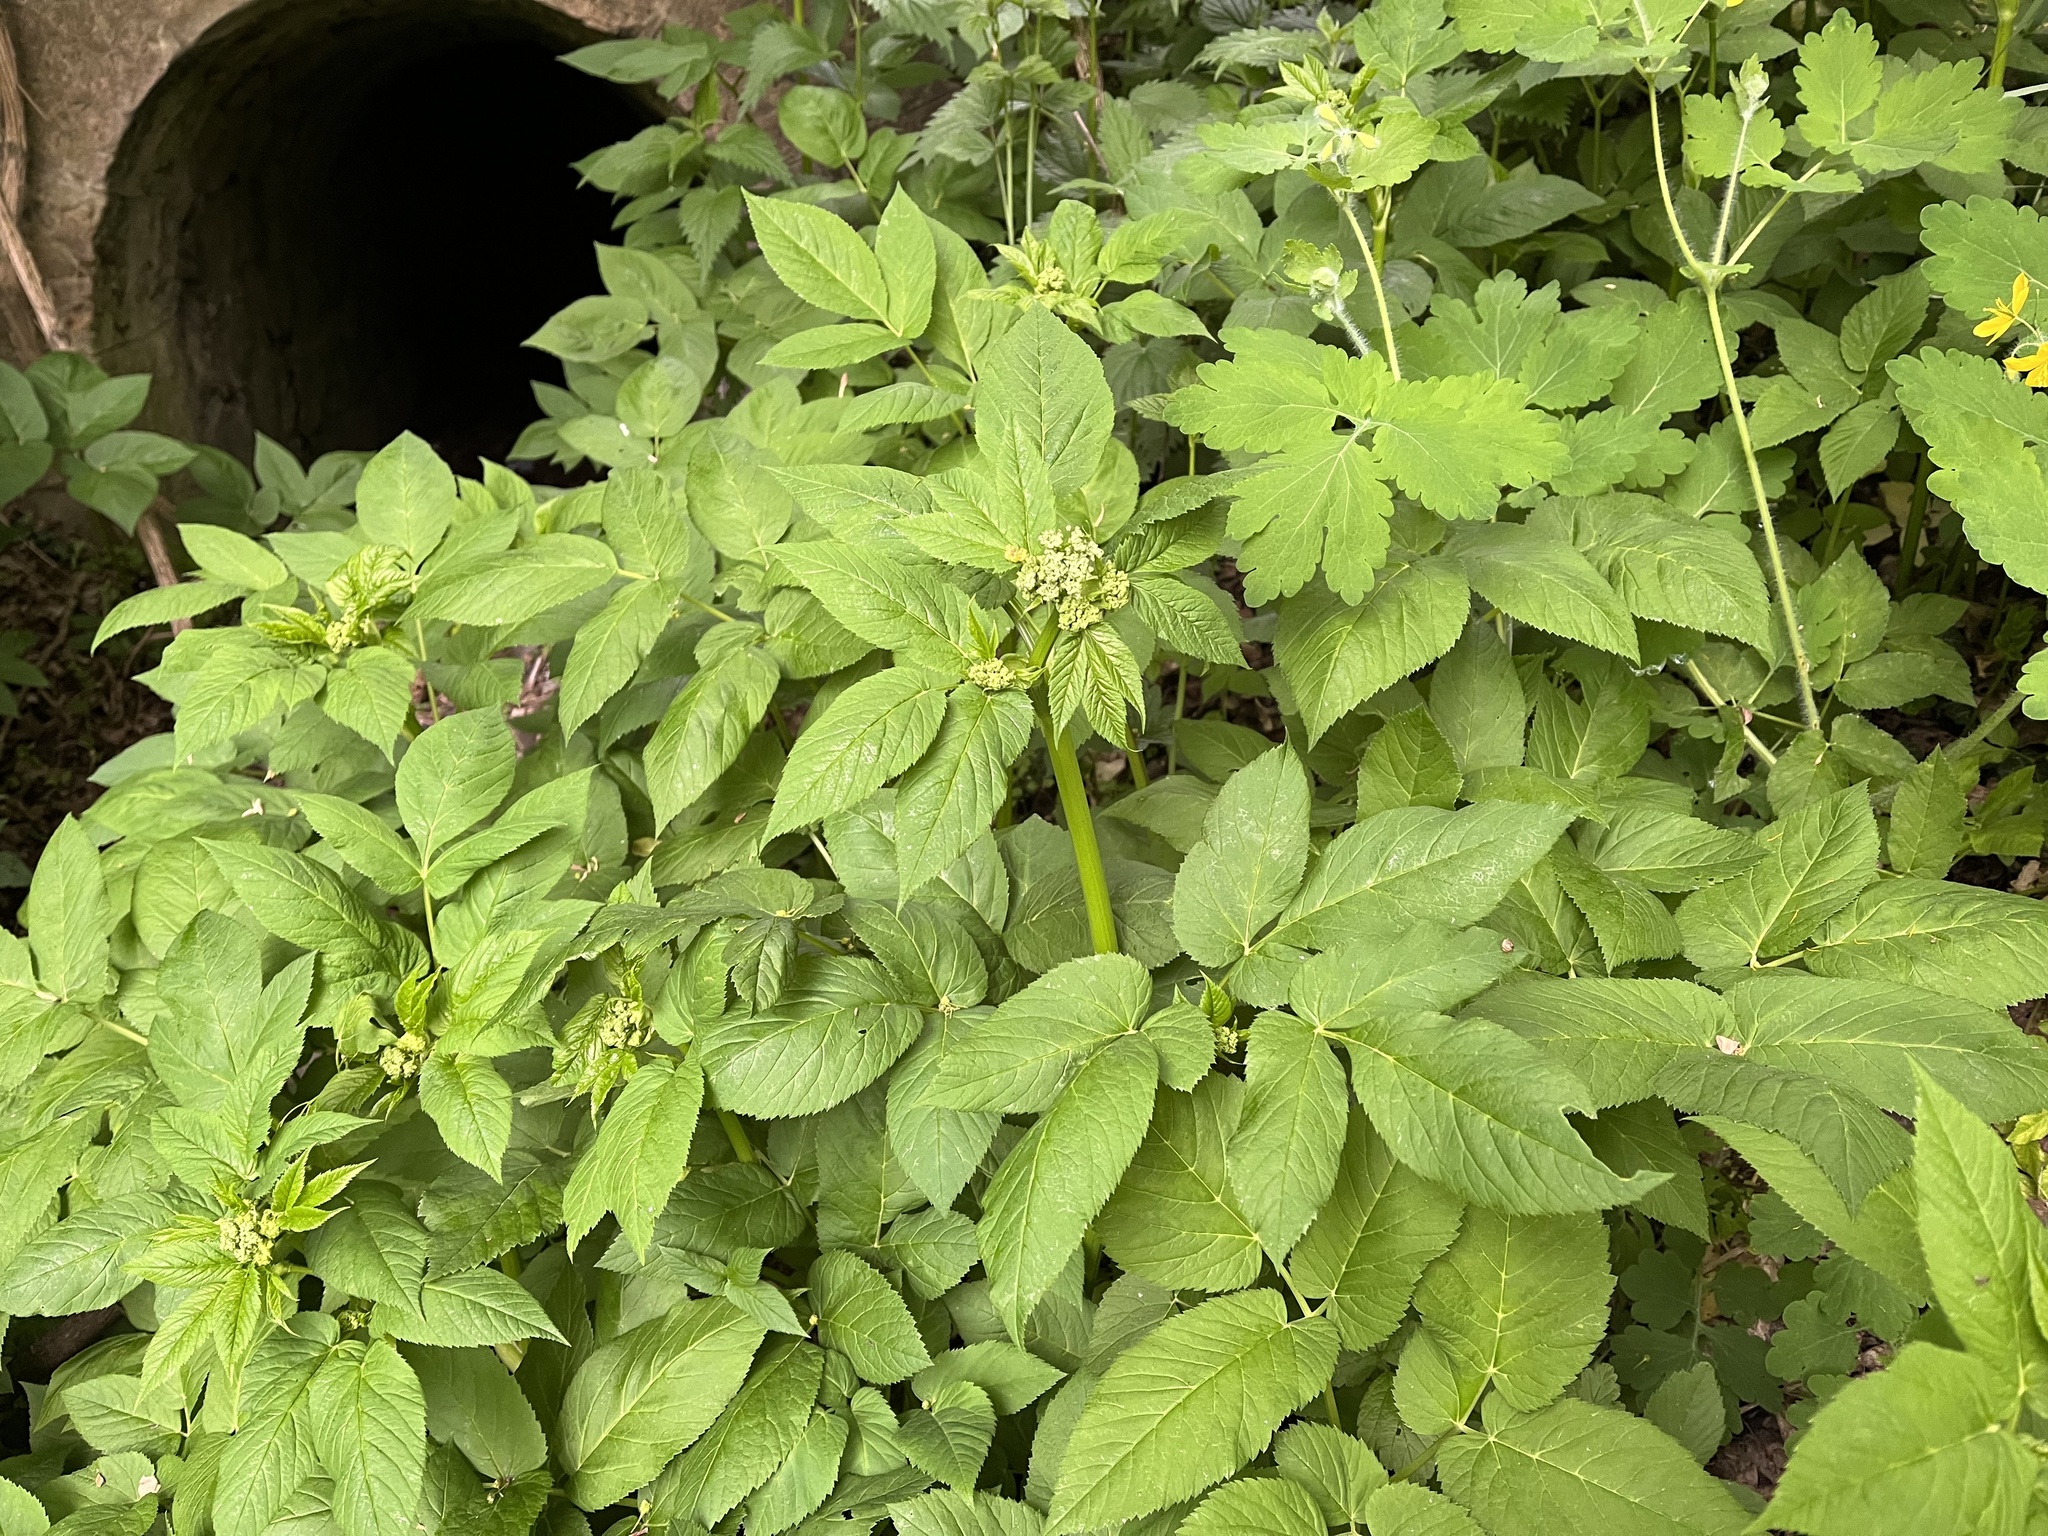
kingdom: Plantae
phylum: Tracheophyta
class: Magnoliopsida
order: Apiales
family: Apiaceae
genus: Aegopodium
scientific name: Aegopodium podagraria
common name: Ground-elder
